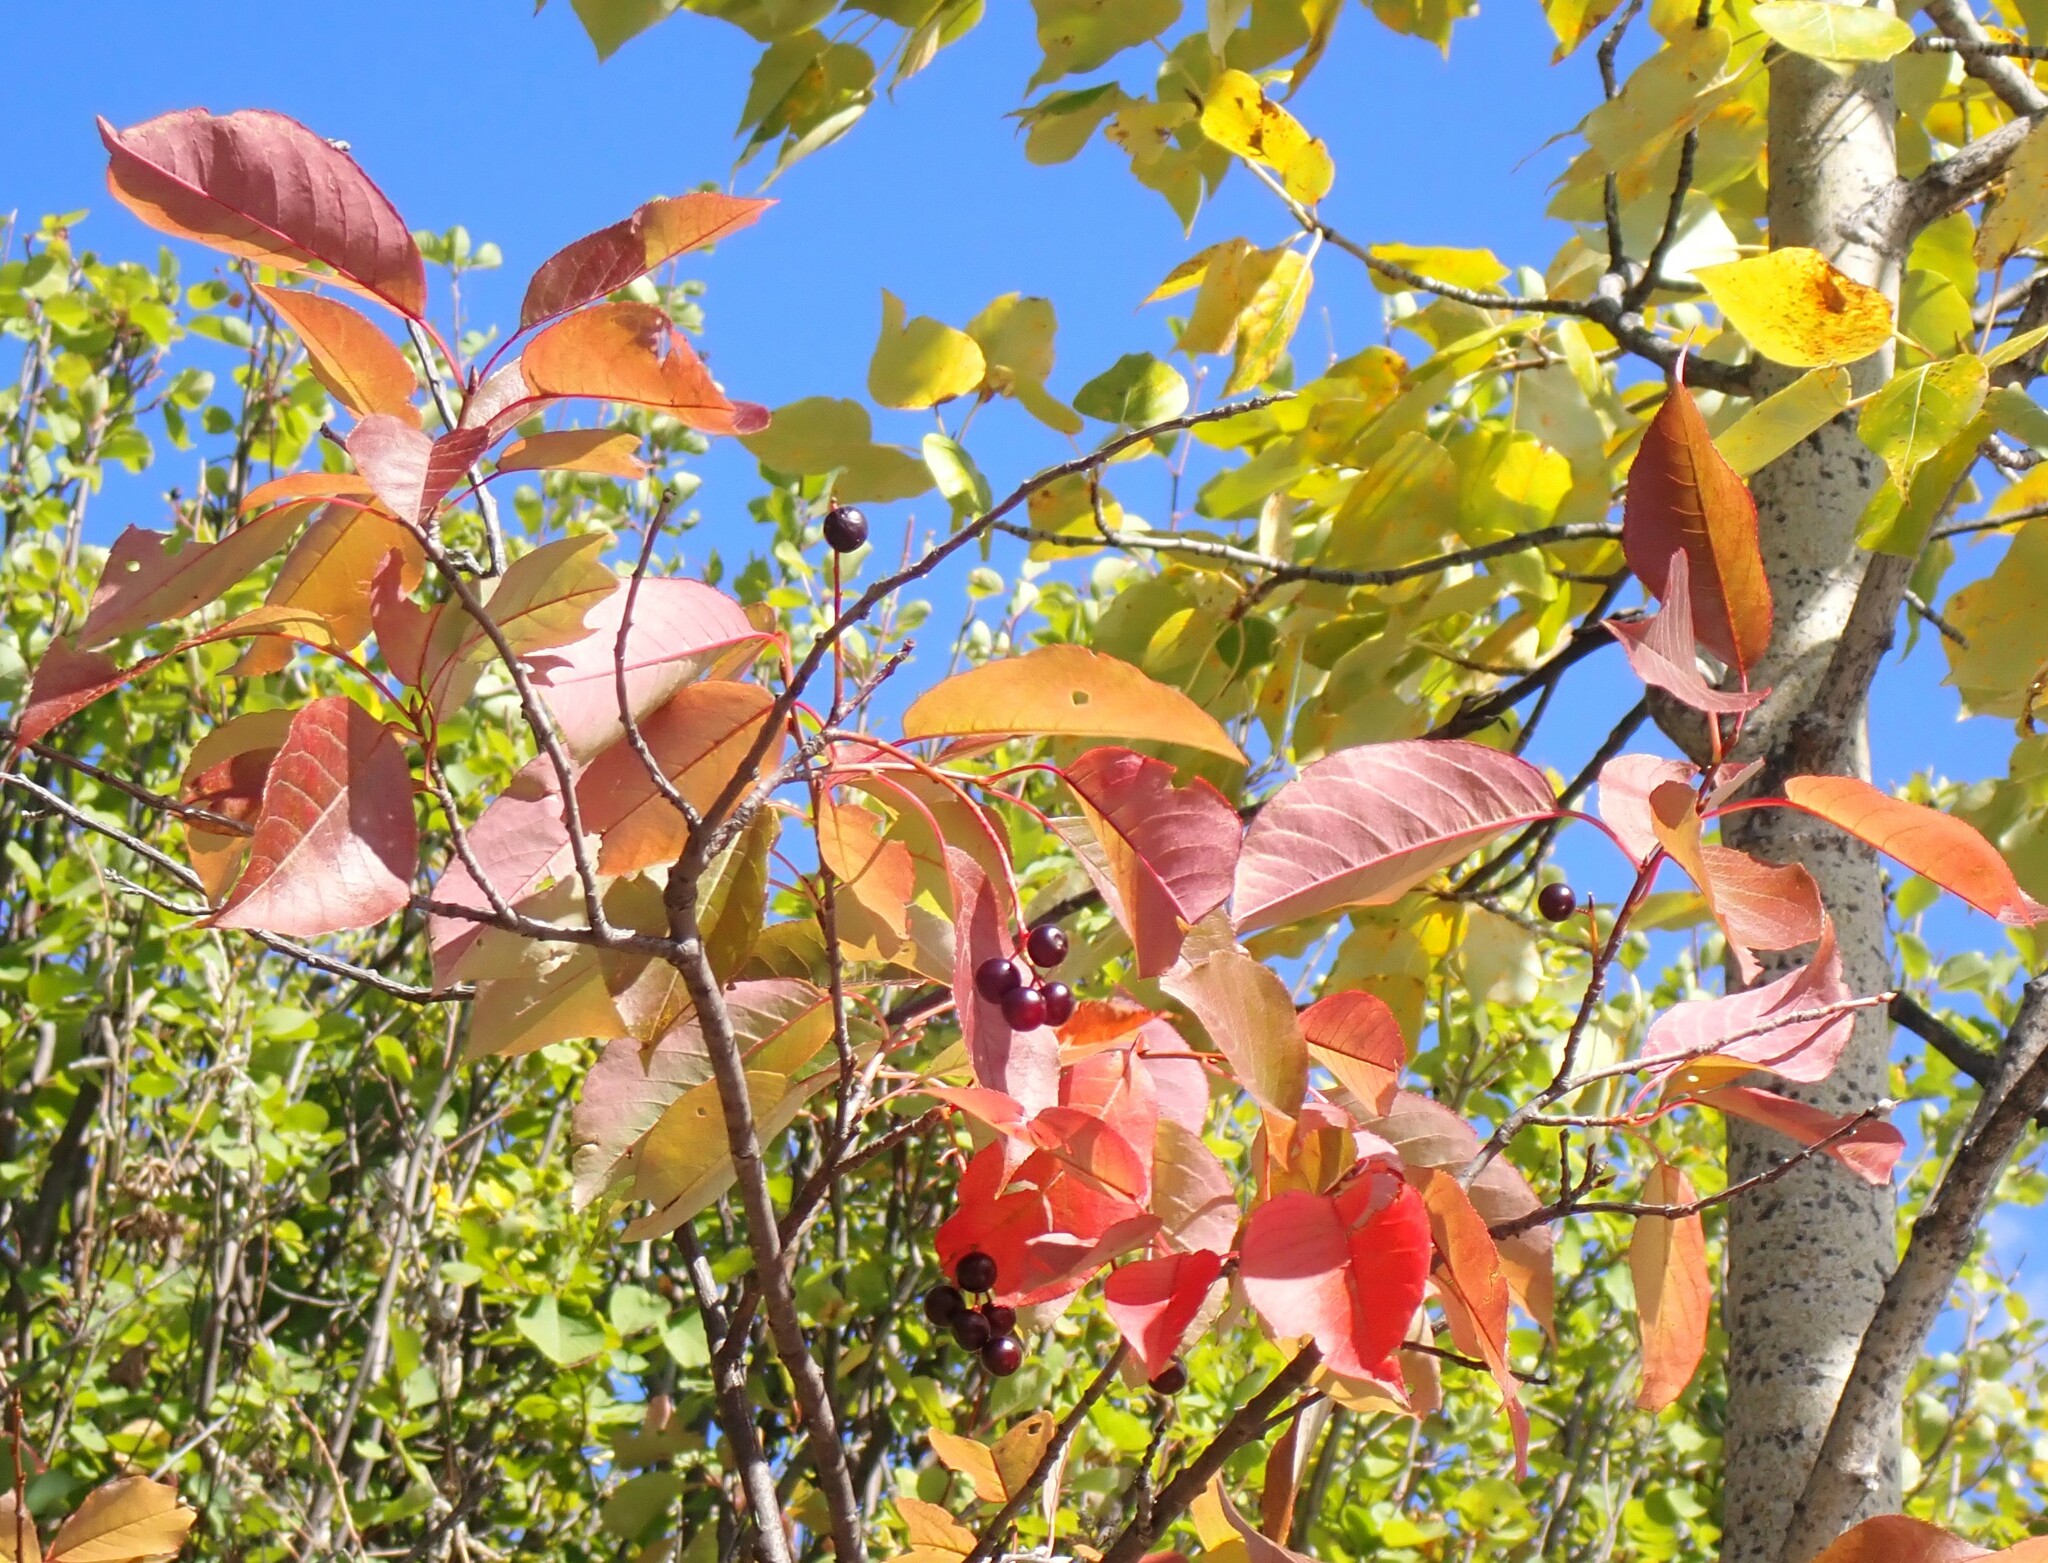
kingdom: Plantae
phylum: Tracheophyta
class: Magnoliopsida
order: Rosales
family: Rosaceae
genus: Prunus
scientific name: Prunus virginiana
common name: Chokecherry
